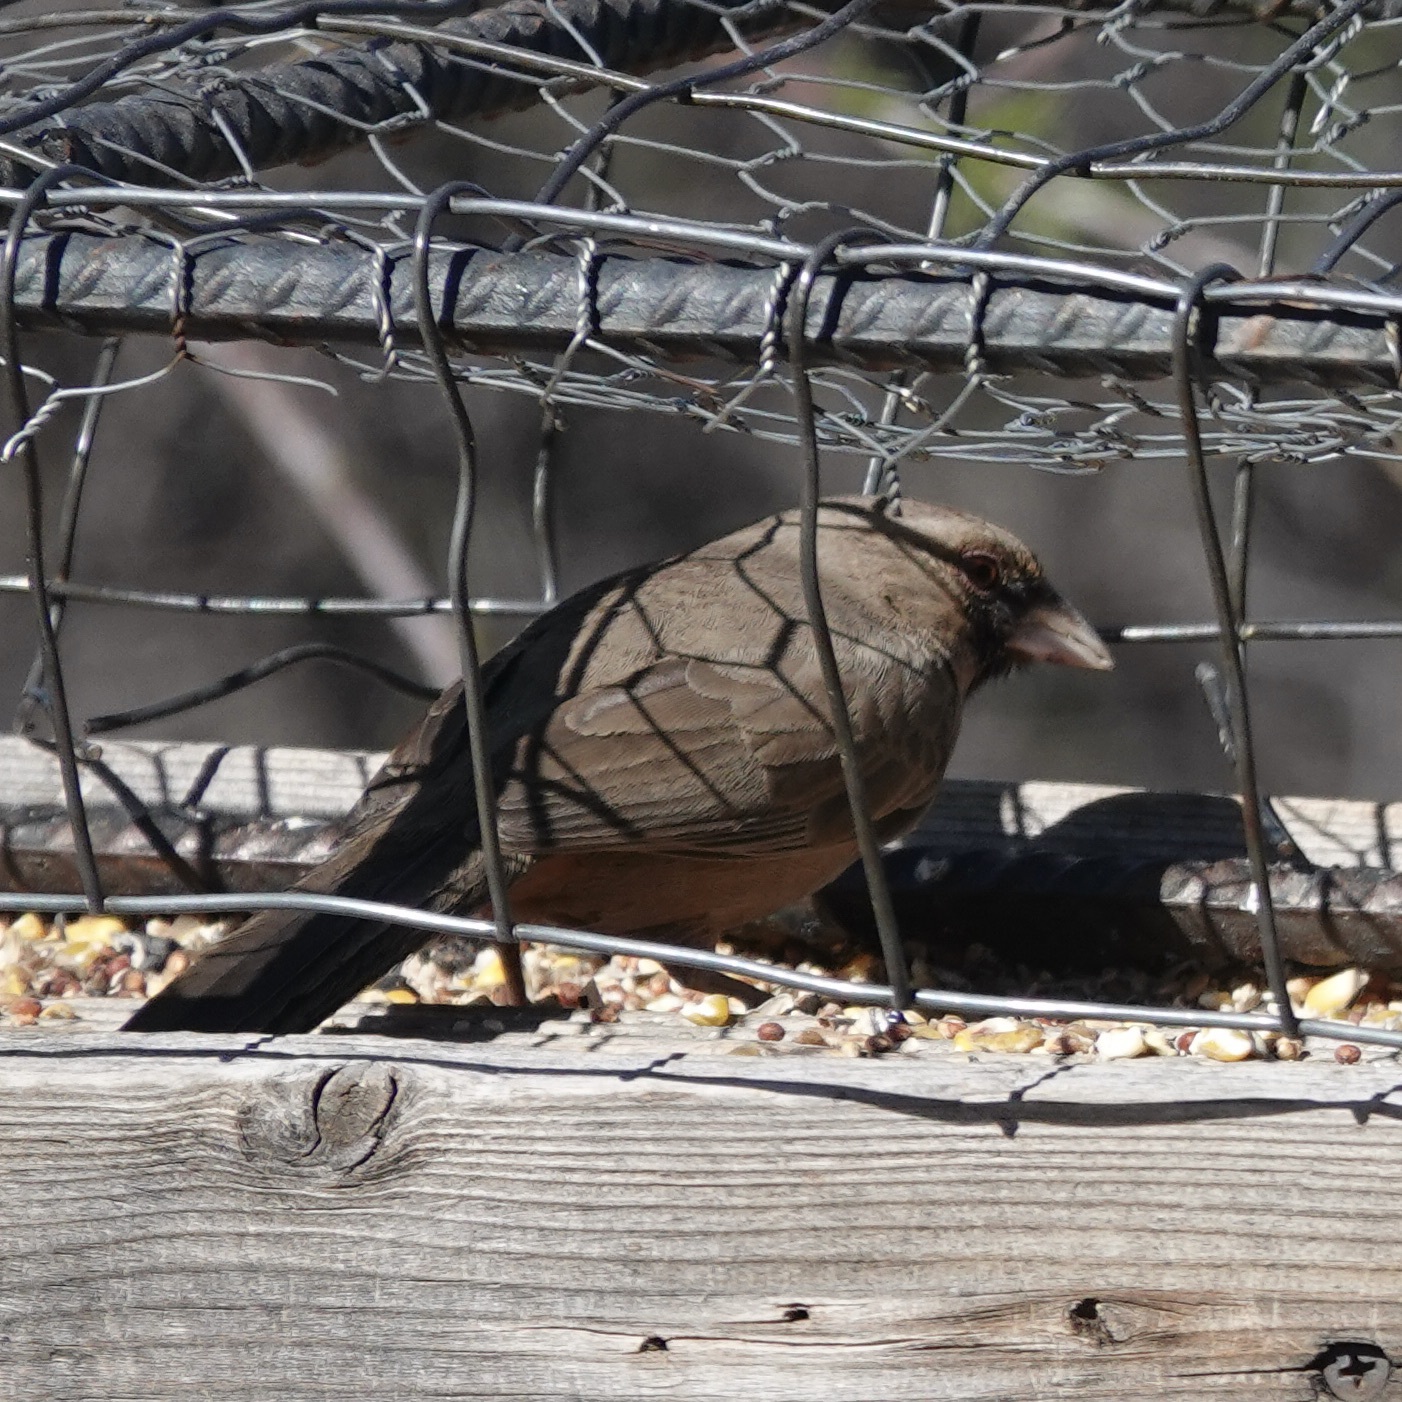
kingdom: Animalia
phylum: Chordata
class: Aves
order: Passeriformes
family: Passerellidae
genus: Melozone
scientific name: Melozone aberti
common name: Abert's towhee
